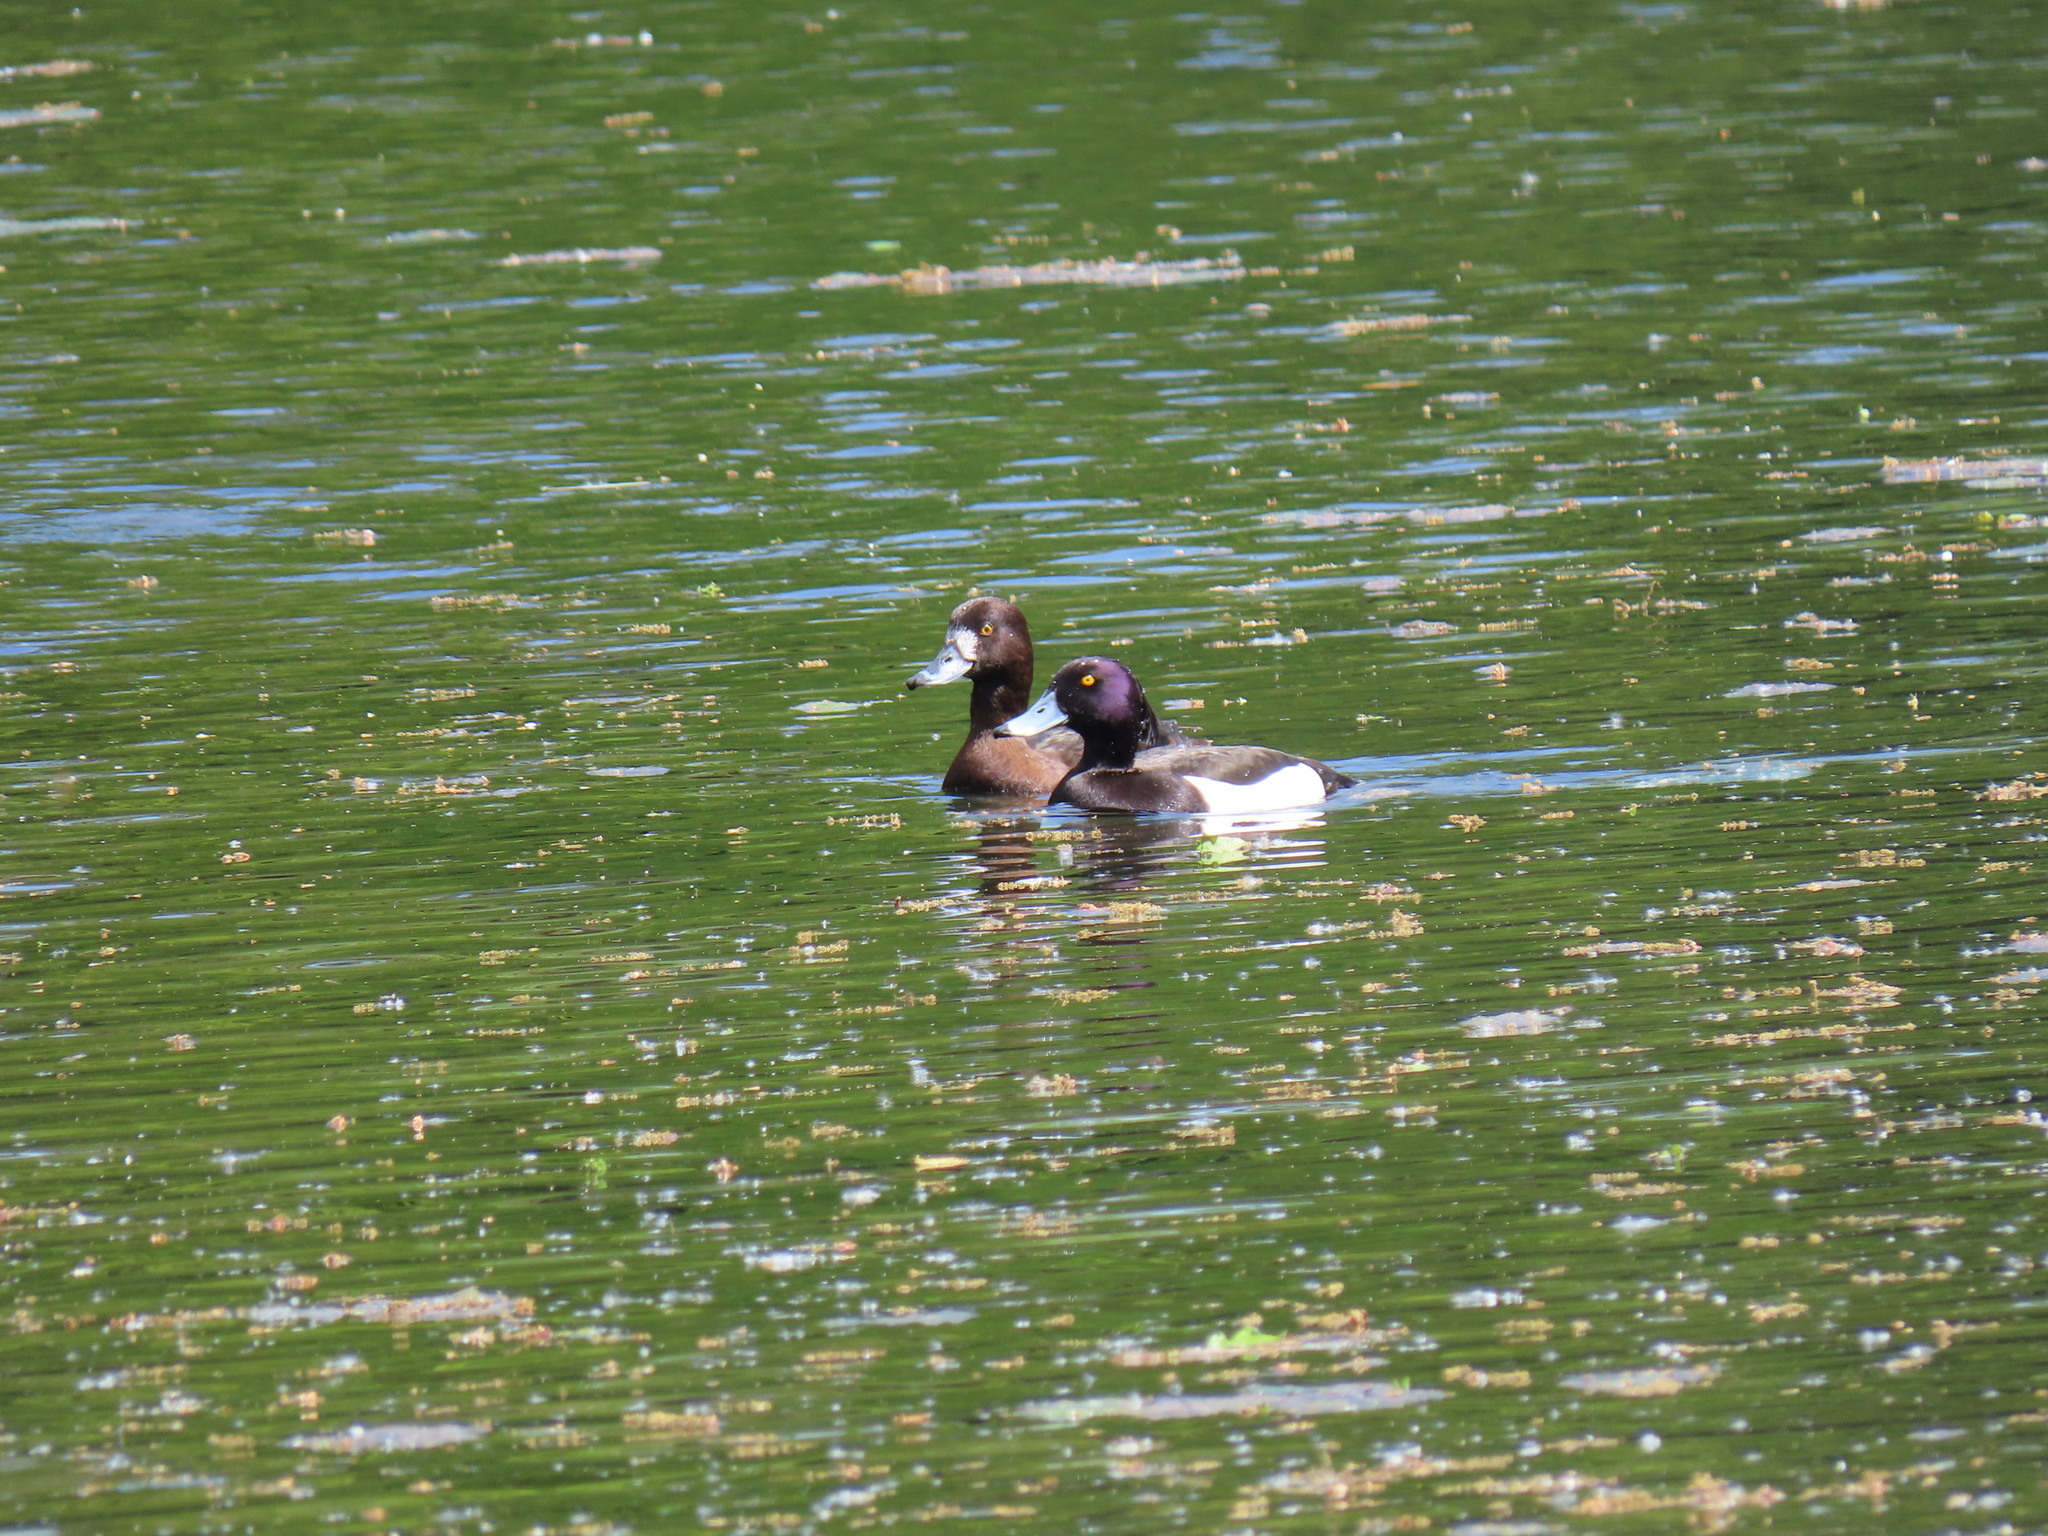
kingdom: Animalia
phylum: Chordata
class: Aves
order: Anseriformes
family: Anatidae
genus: Aythya
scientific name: Aythya fuligula
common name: Tufted duck
